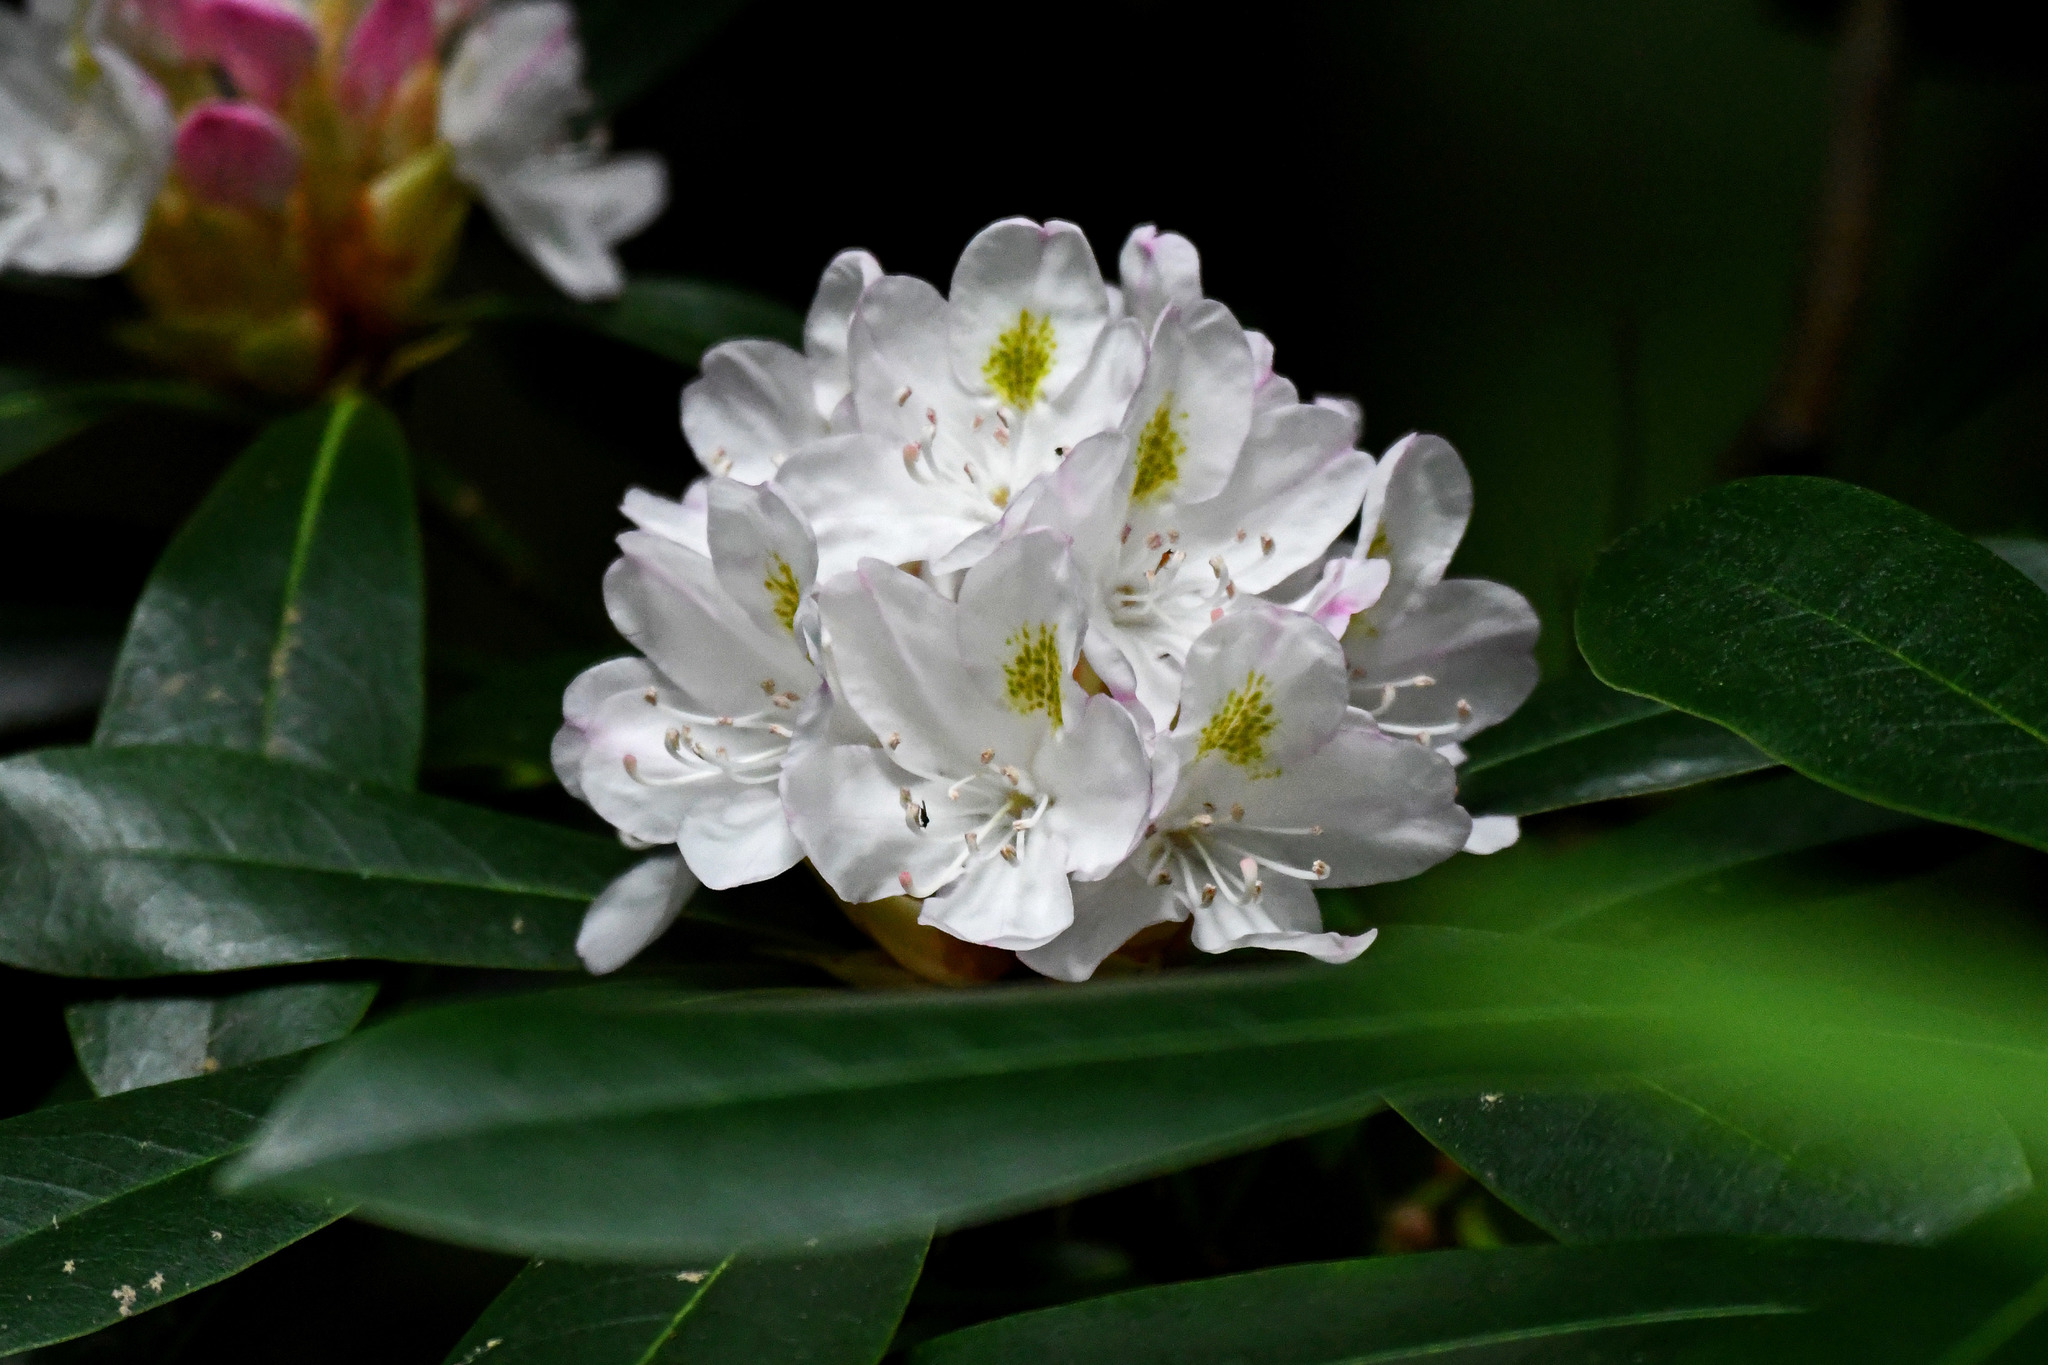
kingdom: Plantae
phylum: Tracheophyta
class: Magnoliopsida
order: Ericales
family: Ericaceae
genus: Rhododendron
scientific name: Rhododendron maximum
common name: Great rhododendron
